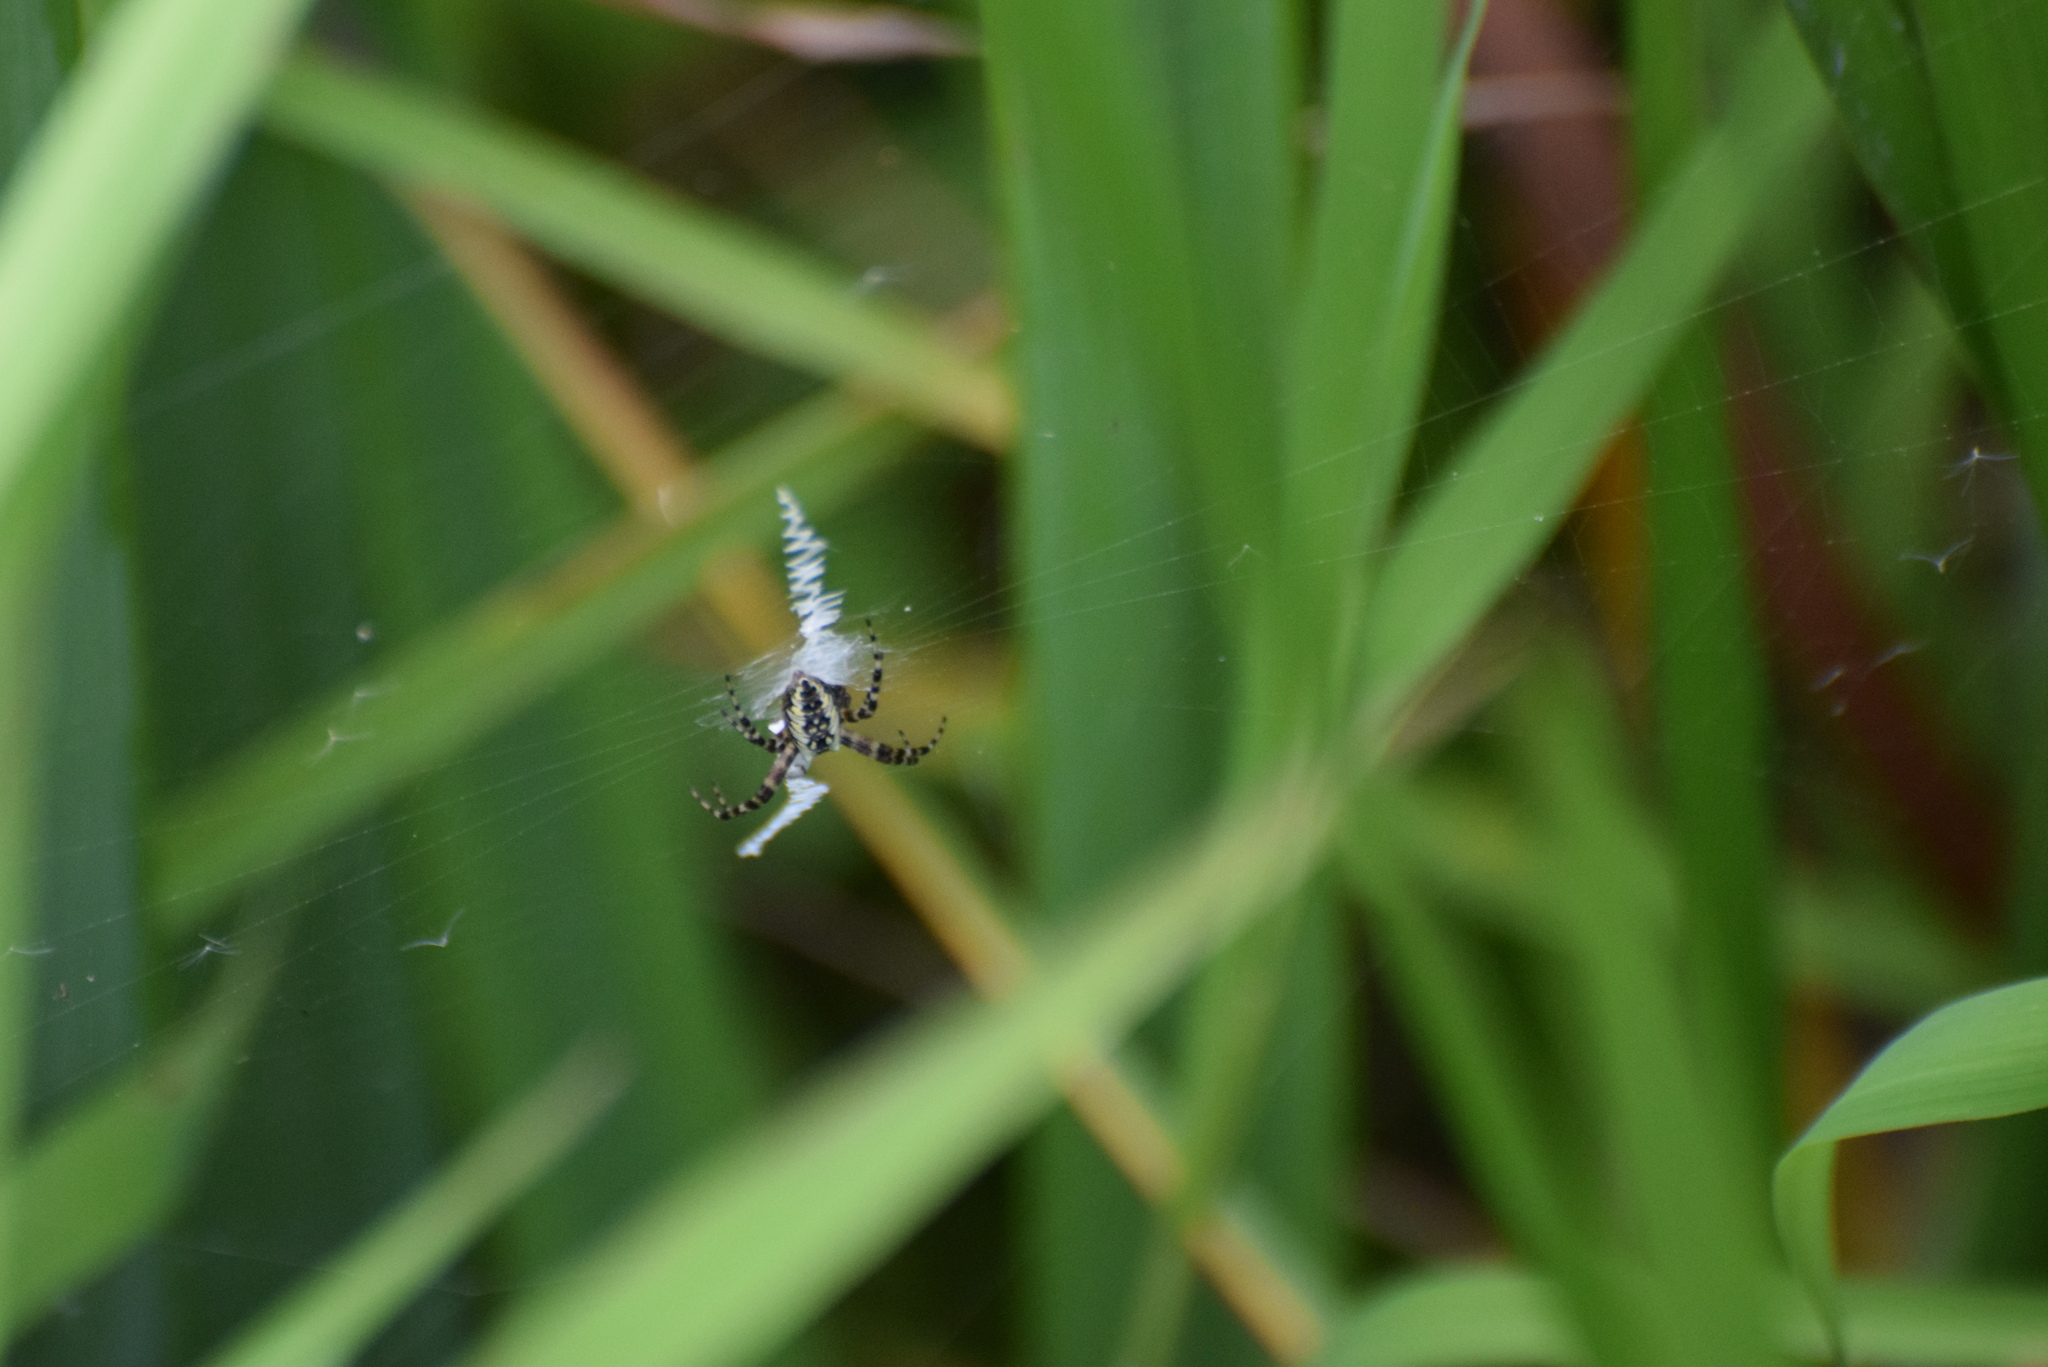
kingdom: Animalia
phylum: Arthropoda
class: Arachnida
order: Araneae
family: Araneidae
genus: Argiope
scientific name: Argiope aurantia
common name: Orb weavers
